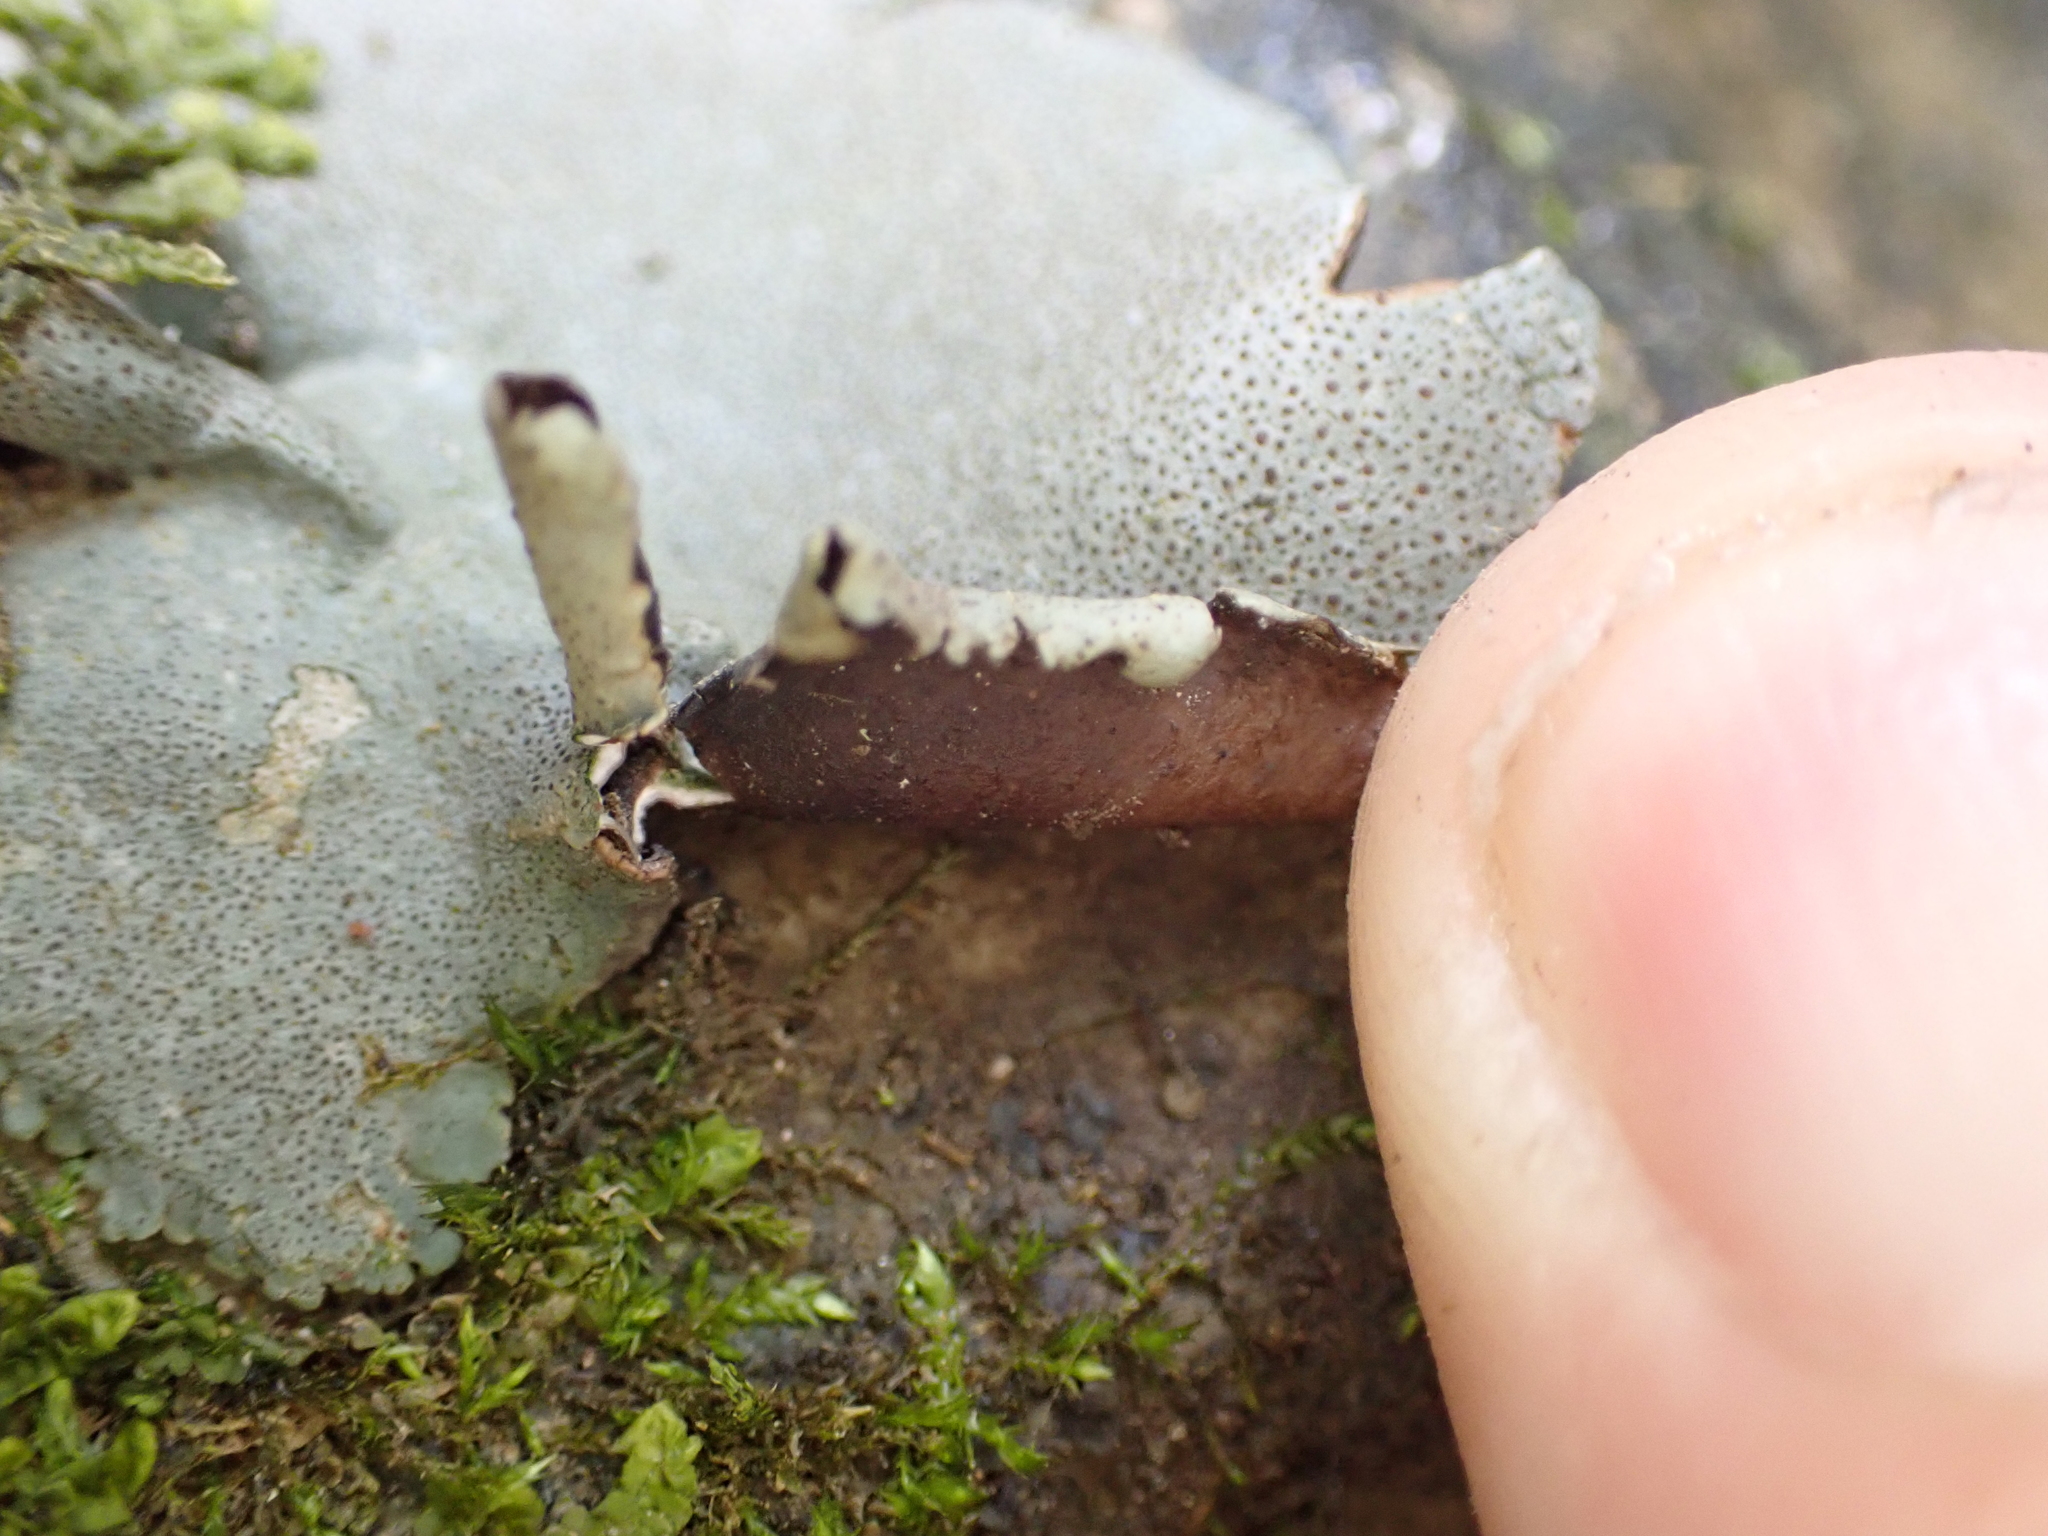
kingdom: Fungi
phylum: Ascomycota
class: Eurotiomycetes
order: Verrucariales
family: Verrucariaceae
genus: Dermatocarpon
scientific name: Dermatocarpon miniatum
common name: Leather lichen
